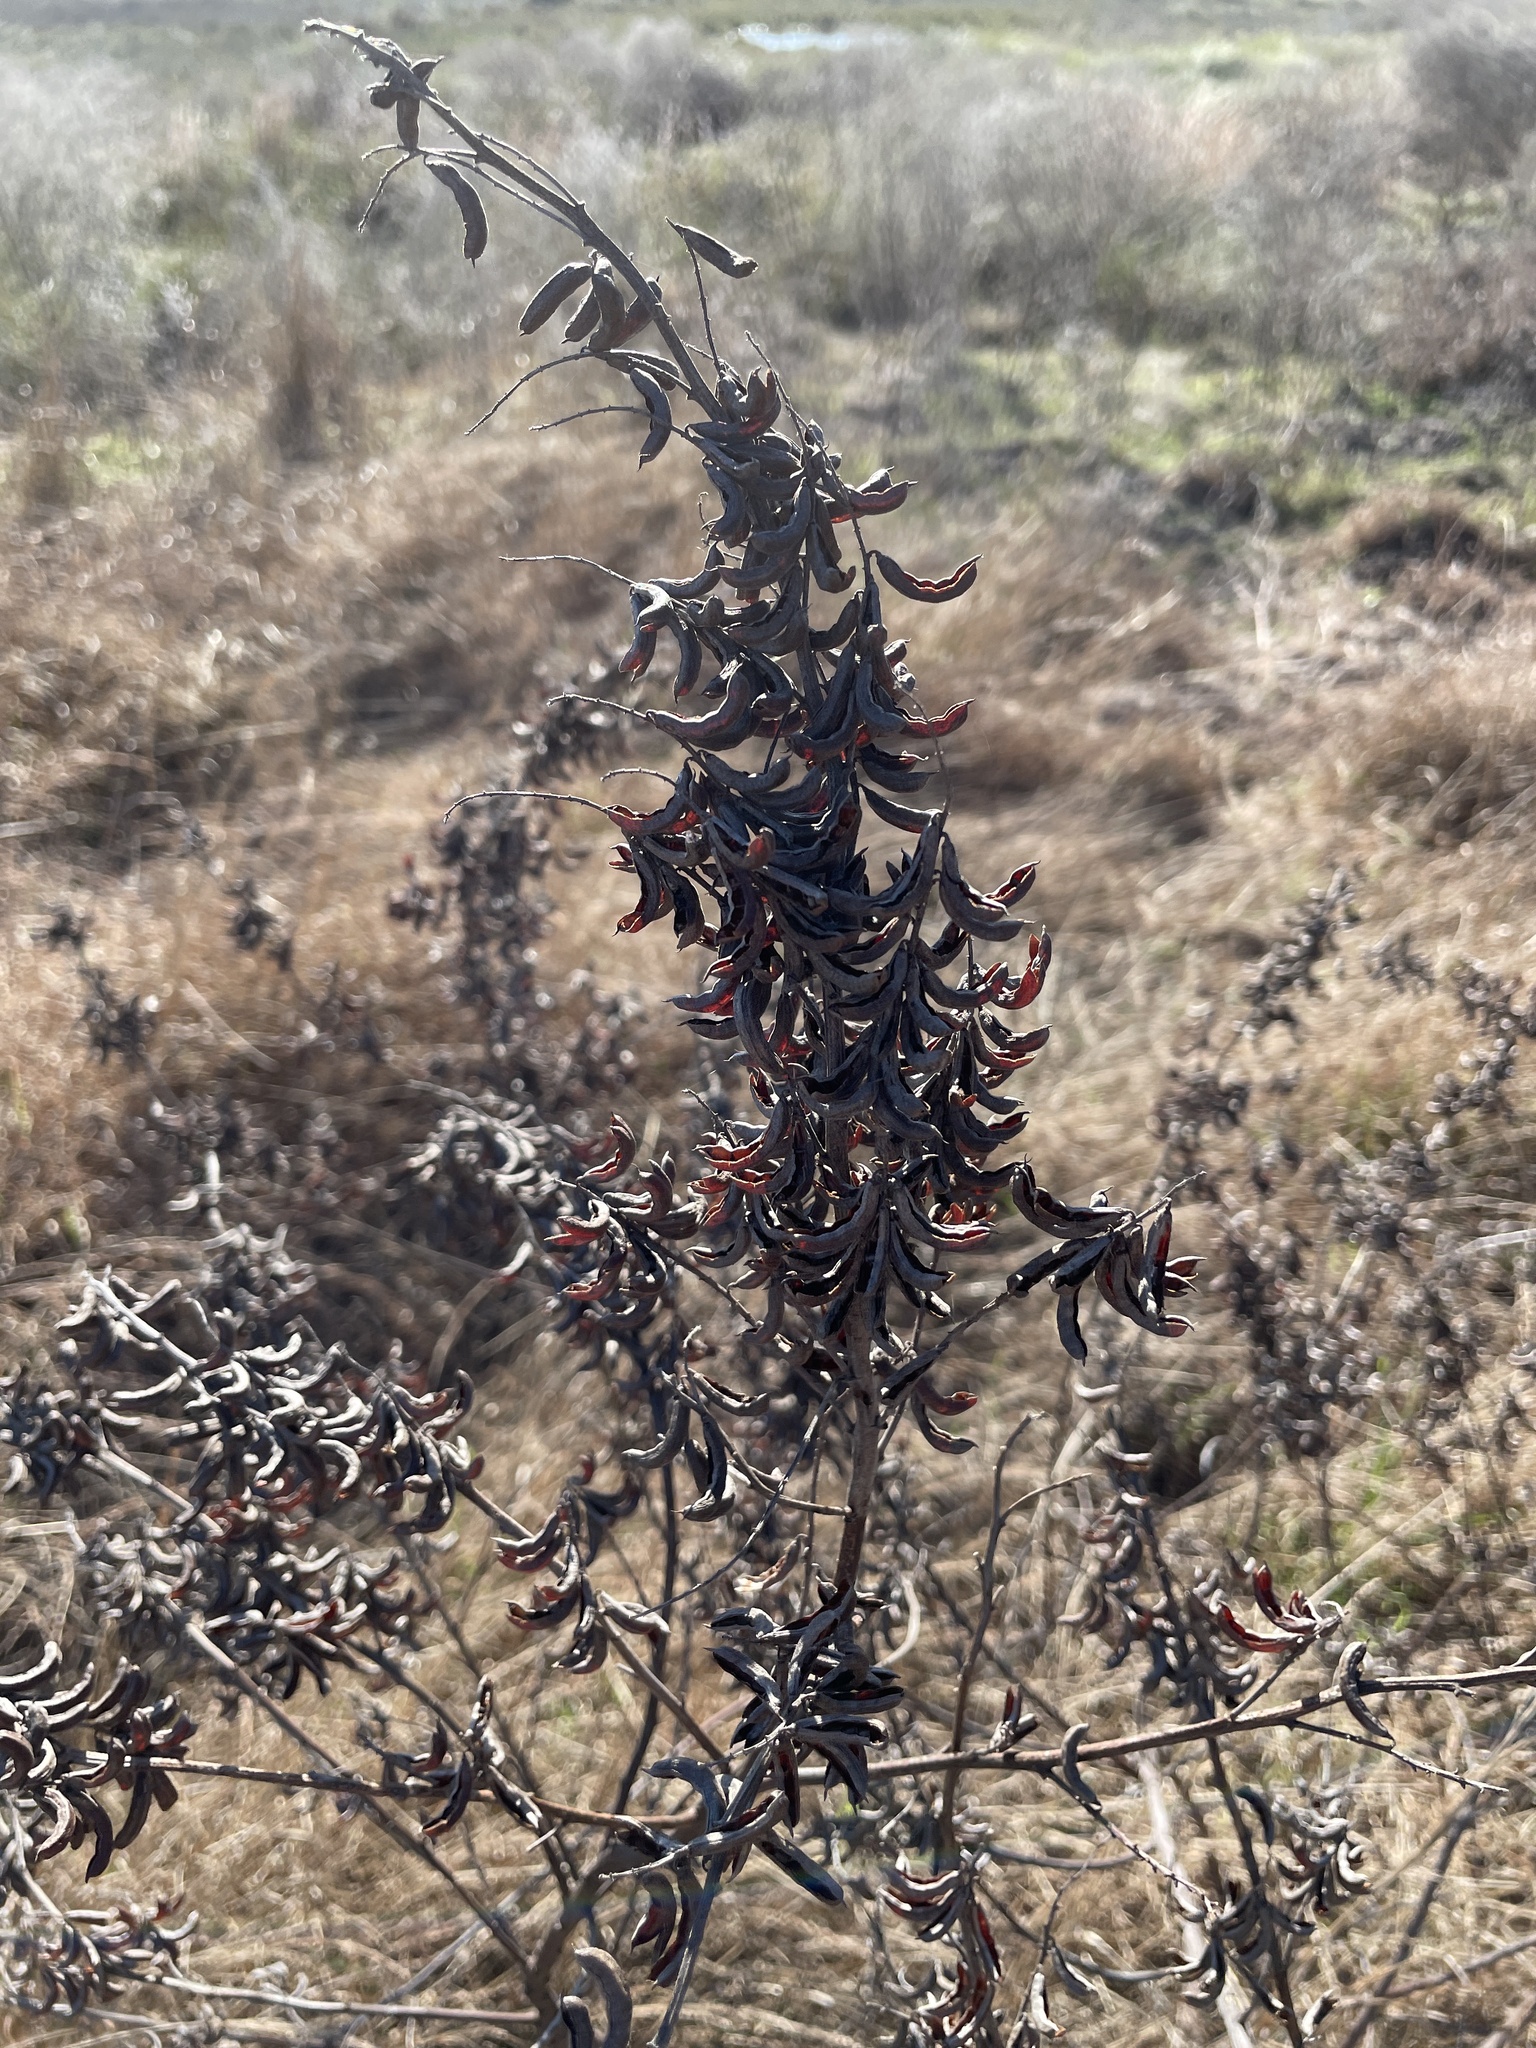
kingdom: Plantae
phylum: Tracheophyta
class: Magnoliopsida
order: Fabales
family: Fabaceae
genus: Indigofera
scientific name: Indigofera suffruticosa
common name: Anil de pasto
